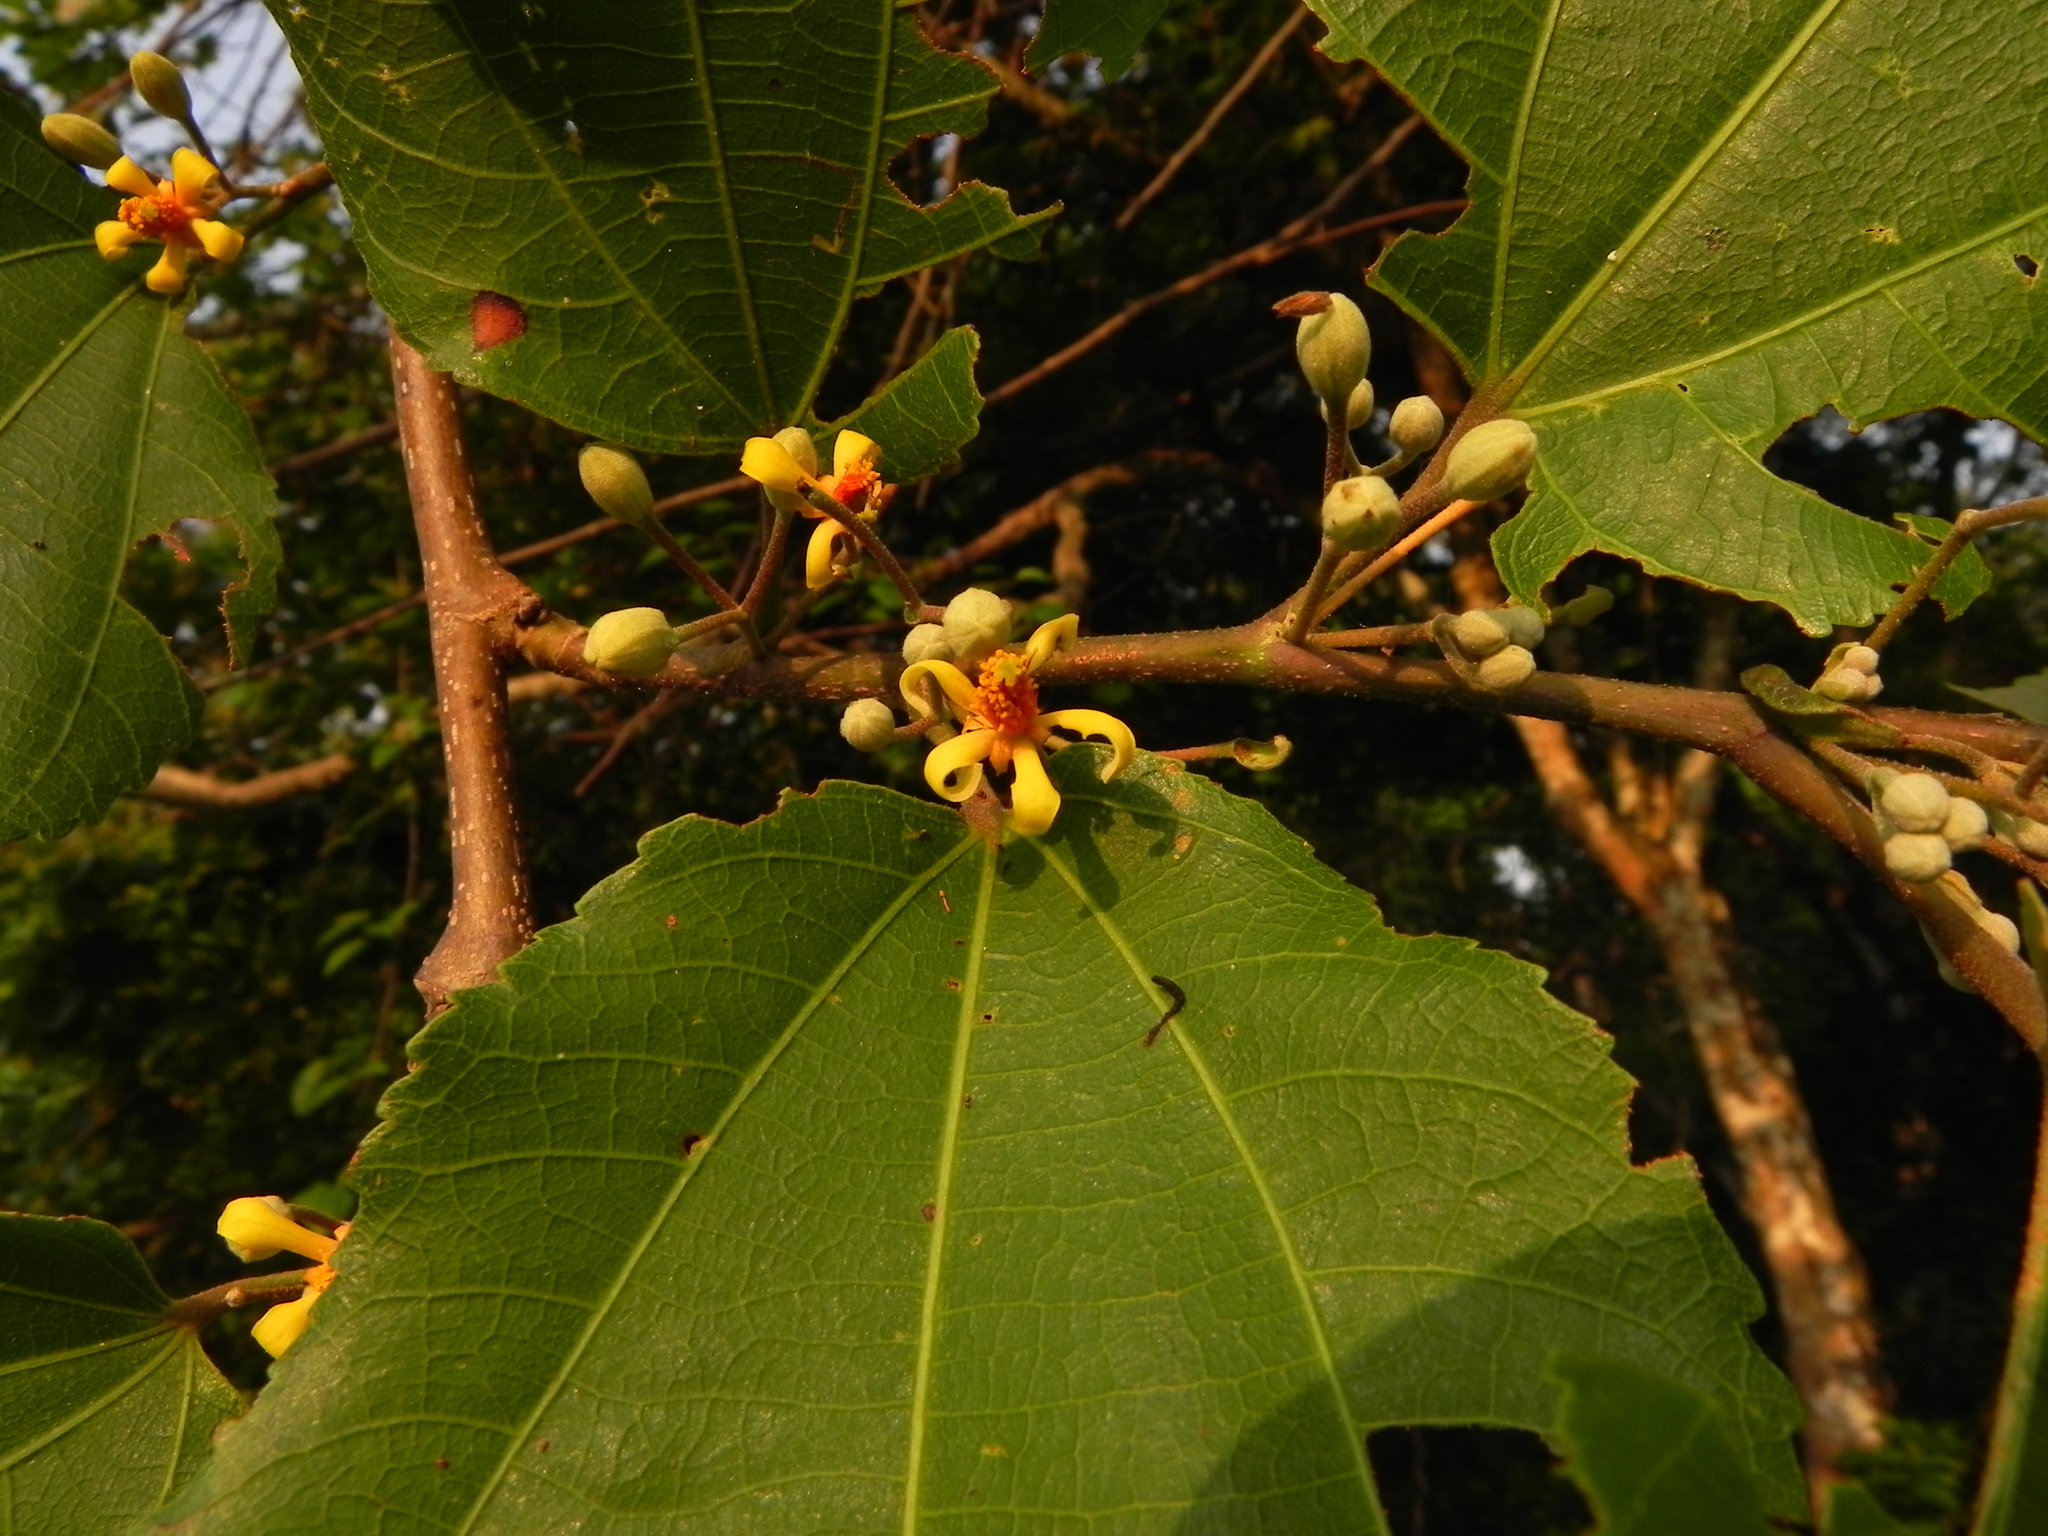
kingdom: Plantae
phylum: Tracheophyta
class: Magnoliopsida
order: Malvales
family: Malvaceae
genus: Grewia
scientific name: Grewia tiliifolia
